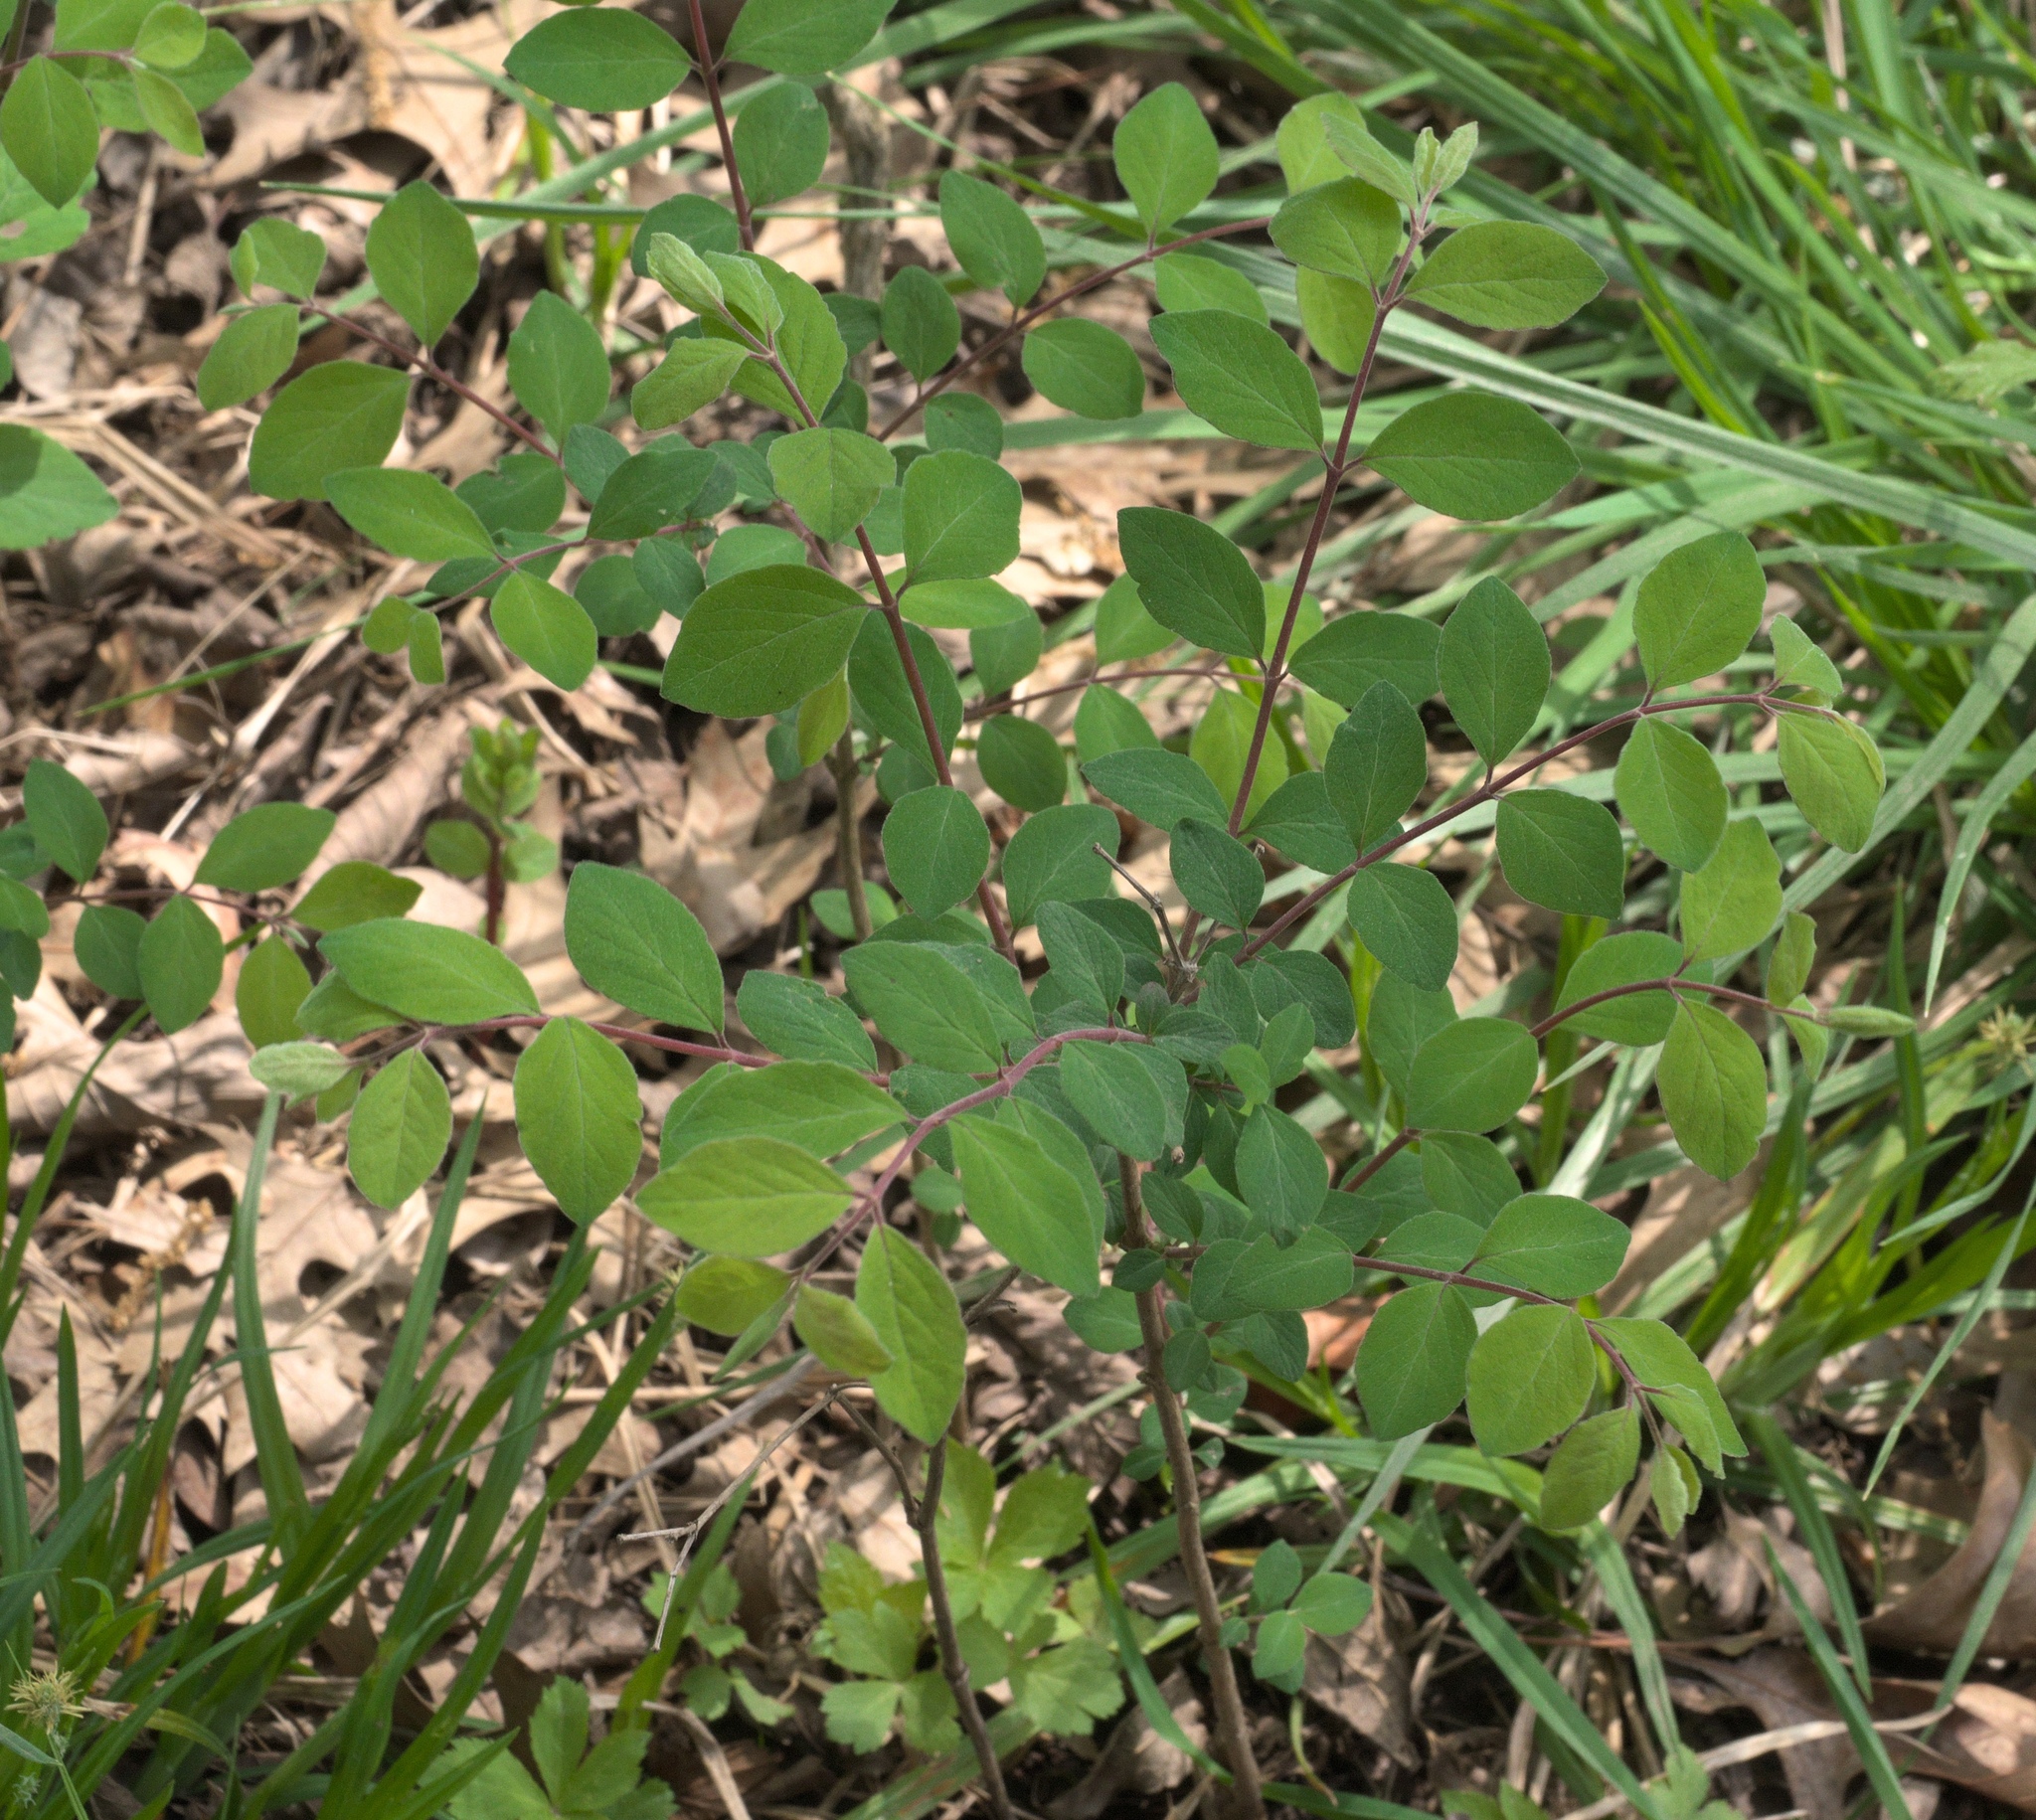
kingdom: Plantae
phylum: Tracheophyta
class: Magnoliopsida
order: Dipsacales
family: Caprifoliaceae
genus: Symphoricarpos
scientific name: Symphoricarpos orbiculatus
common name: Coralberry
